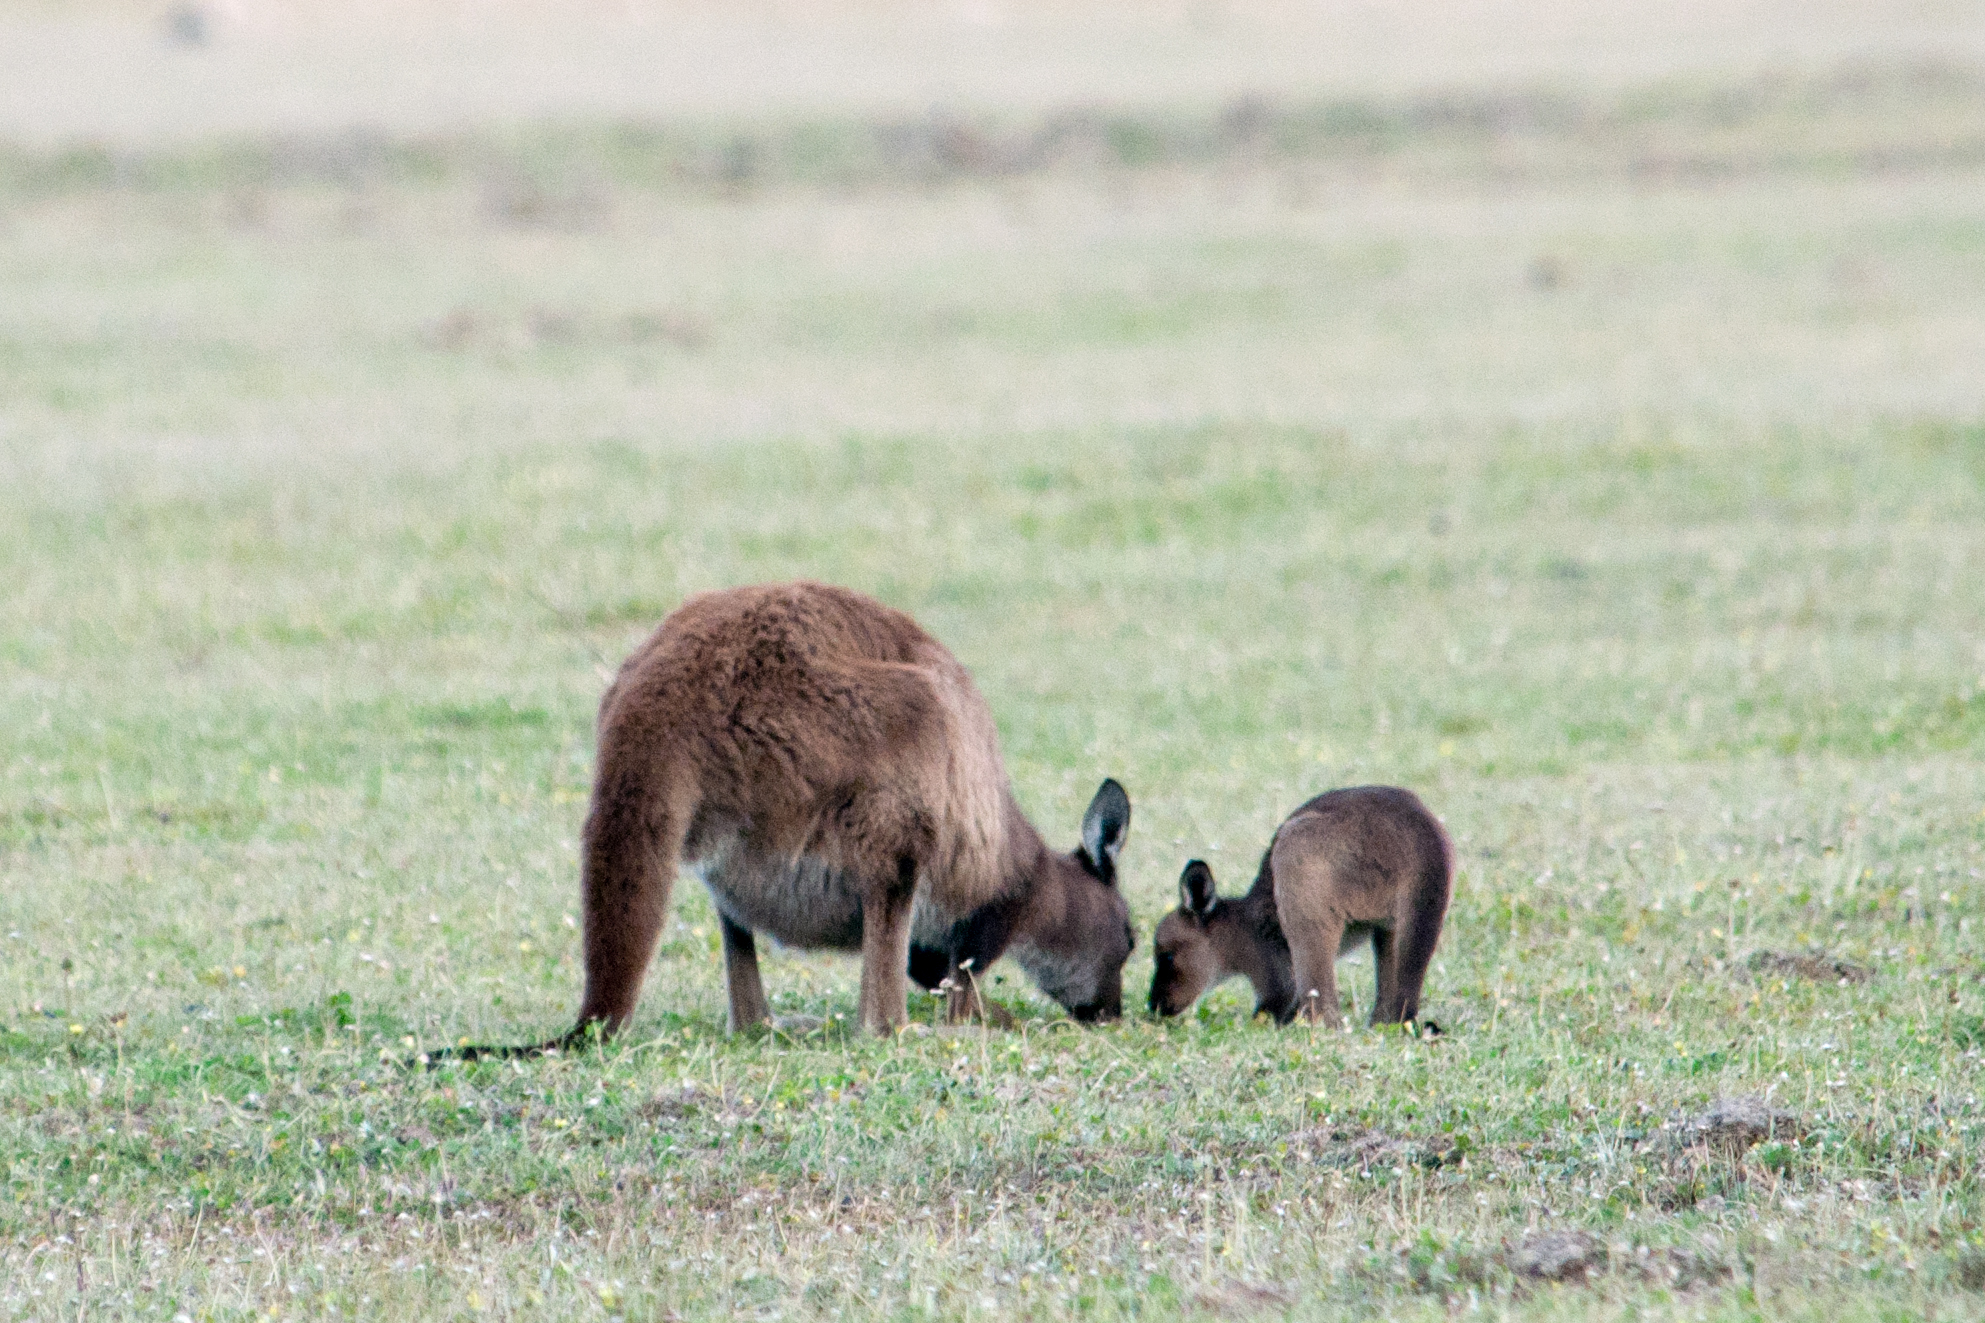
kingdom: Animalia
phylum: Chordata
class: Mammalia
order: Diprotodontia
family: Macropodidae
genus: Macropus
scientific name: Macropus fuliginosus
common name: Western grey kangaroo
